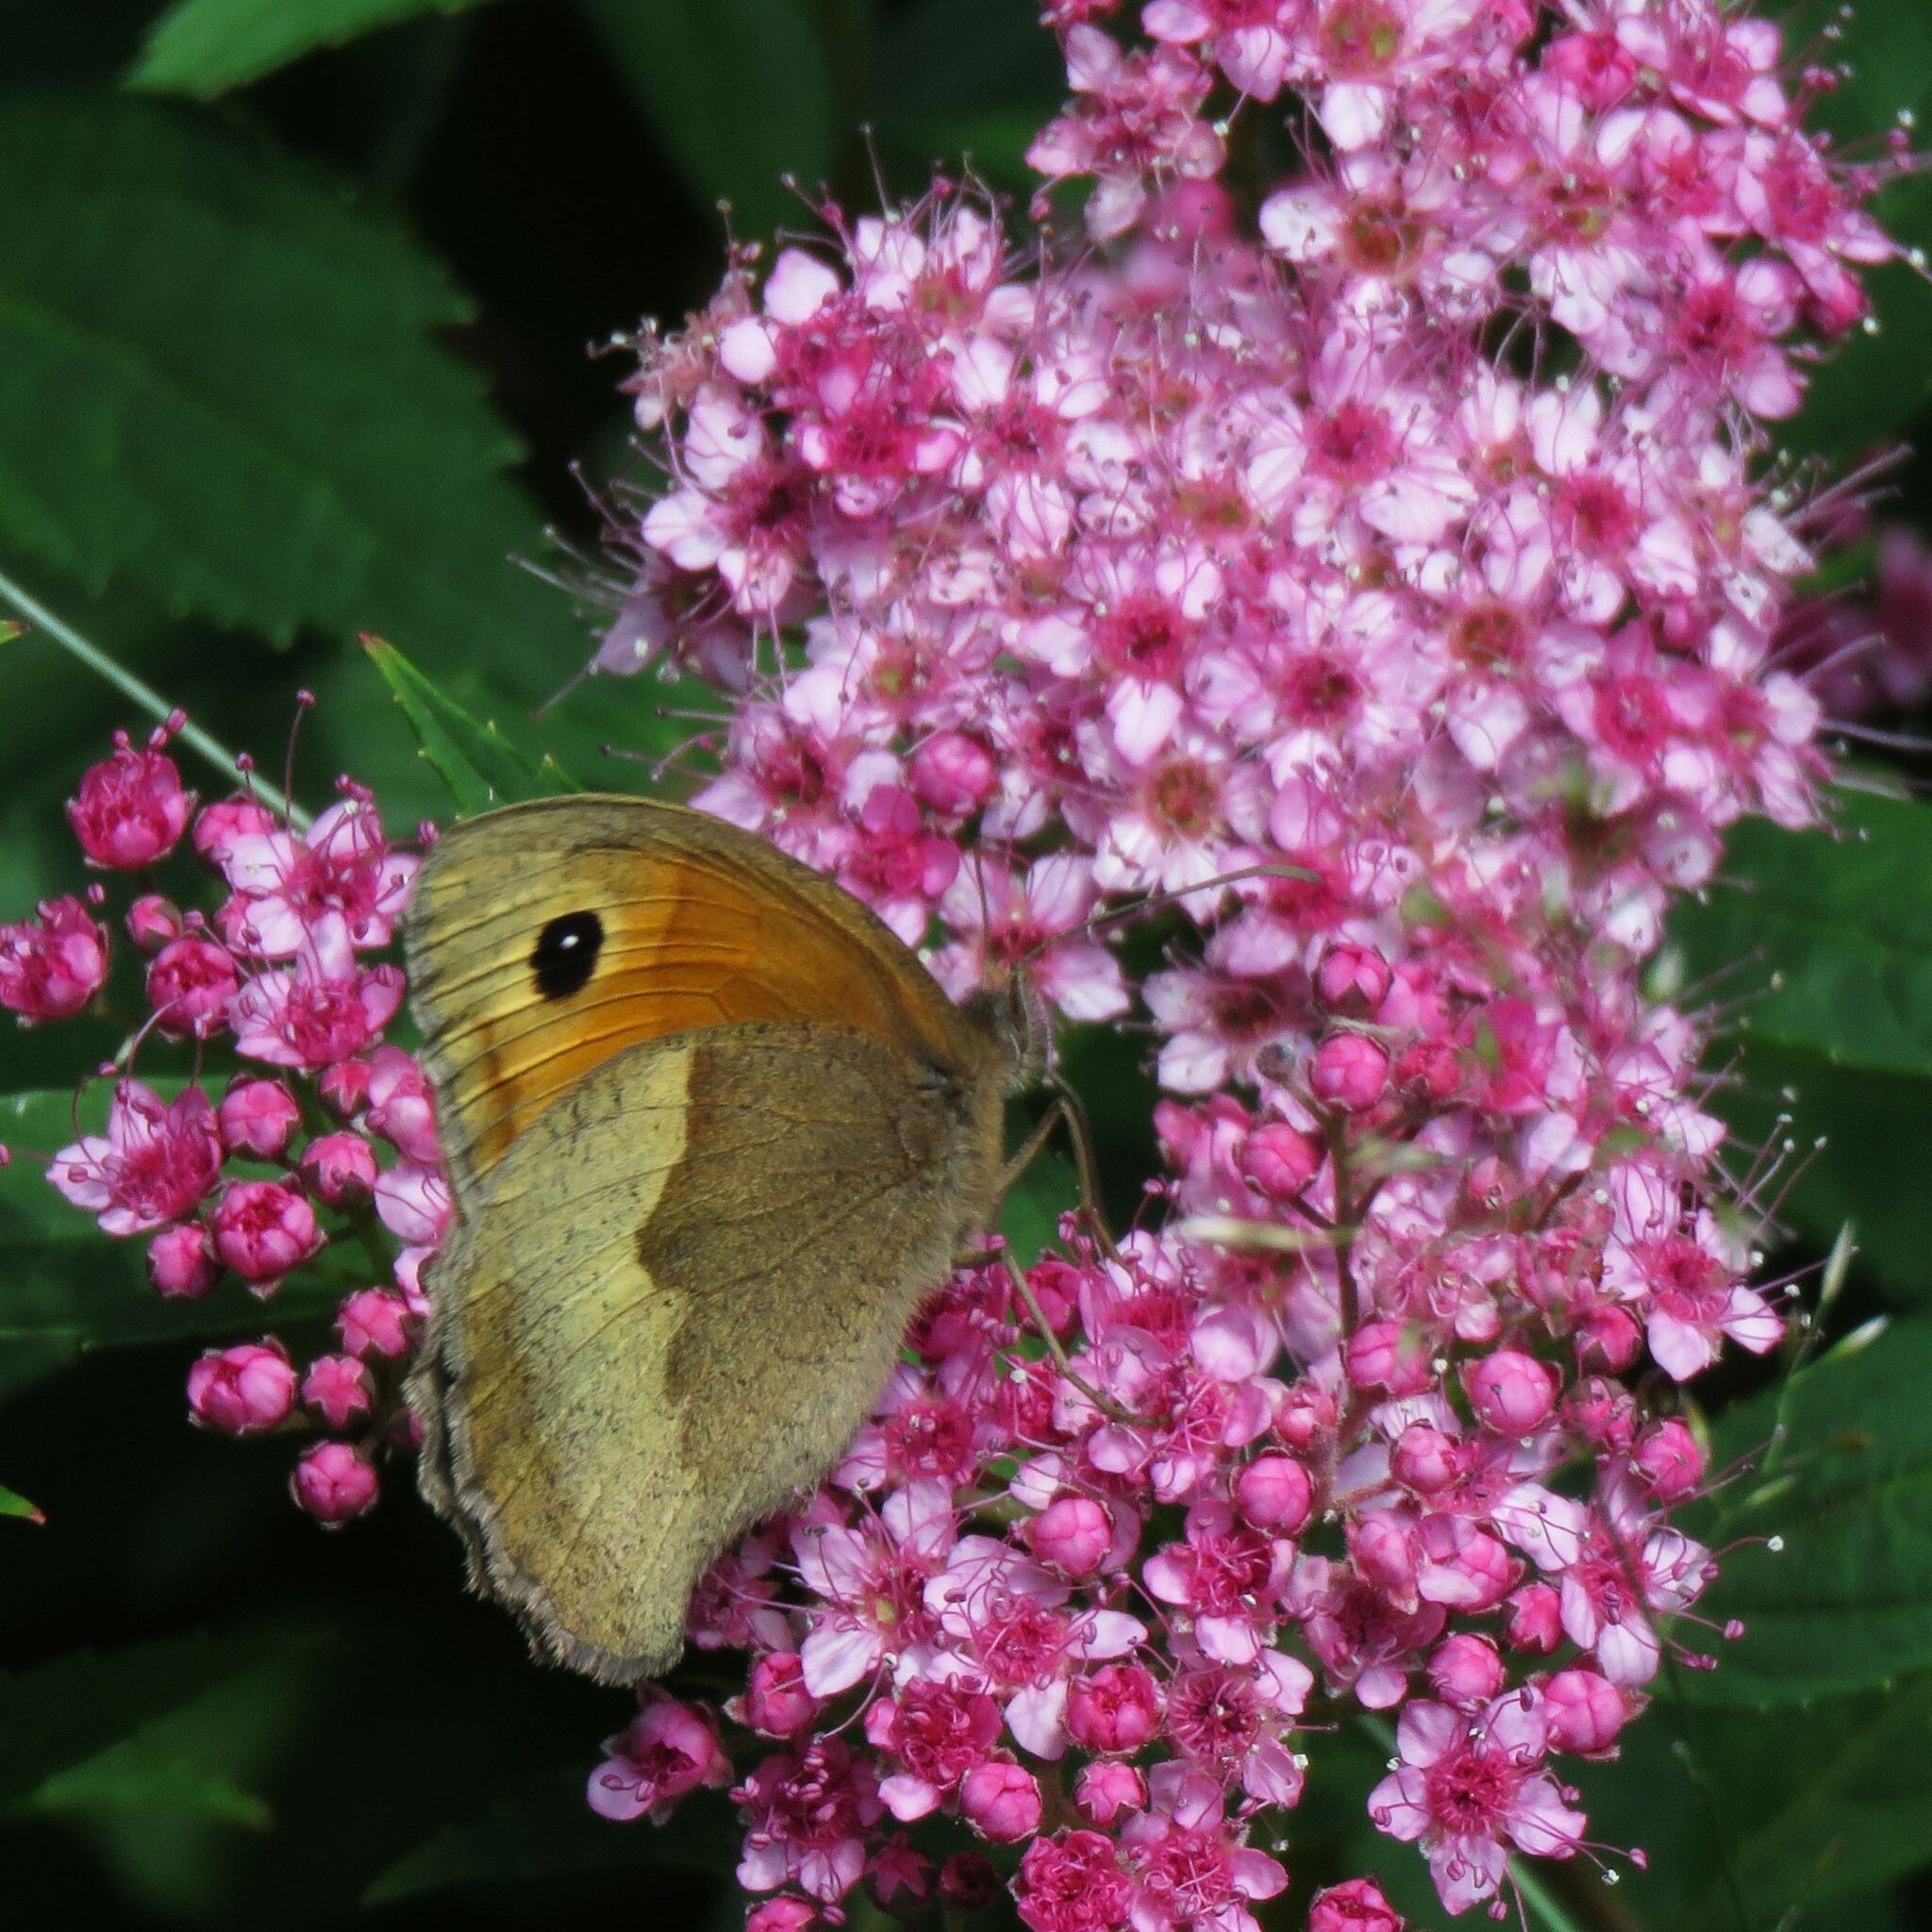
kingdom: Animalia
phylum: Arthropoda
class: Insecta
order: Lepidoptera
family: Nymphalidae
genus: Maniola
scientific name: Maniola jurtina
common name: Meadow brown
